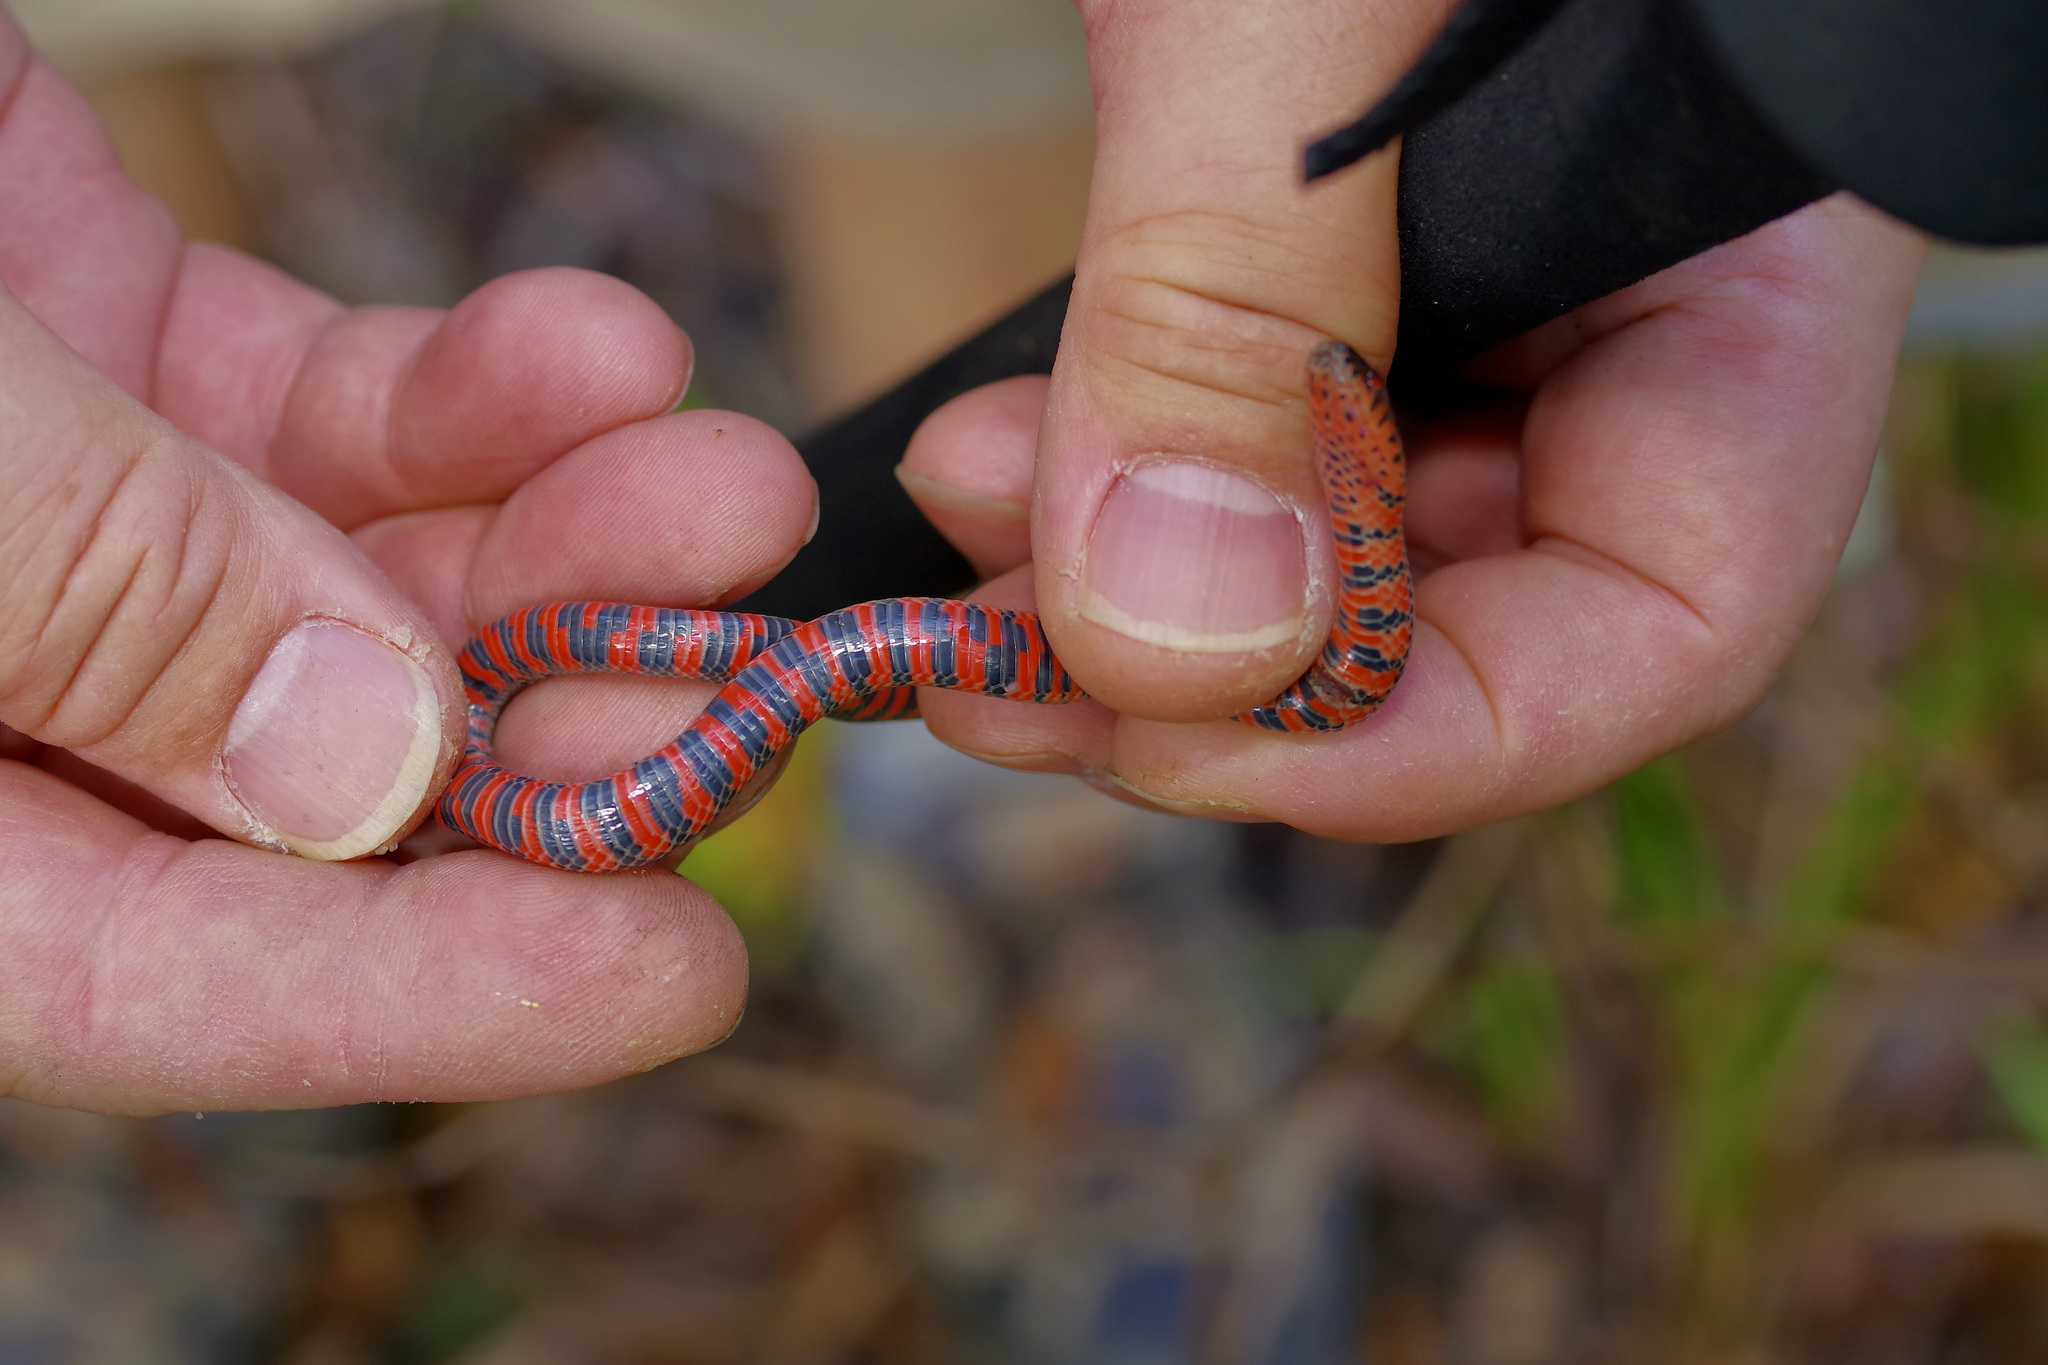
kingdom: Animalia
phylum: Chordata
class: Squamata
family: Colubridae
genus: Farancia
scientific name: Farancia abacura
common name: Mud snake
